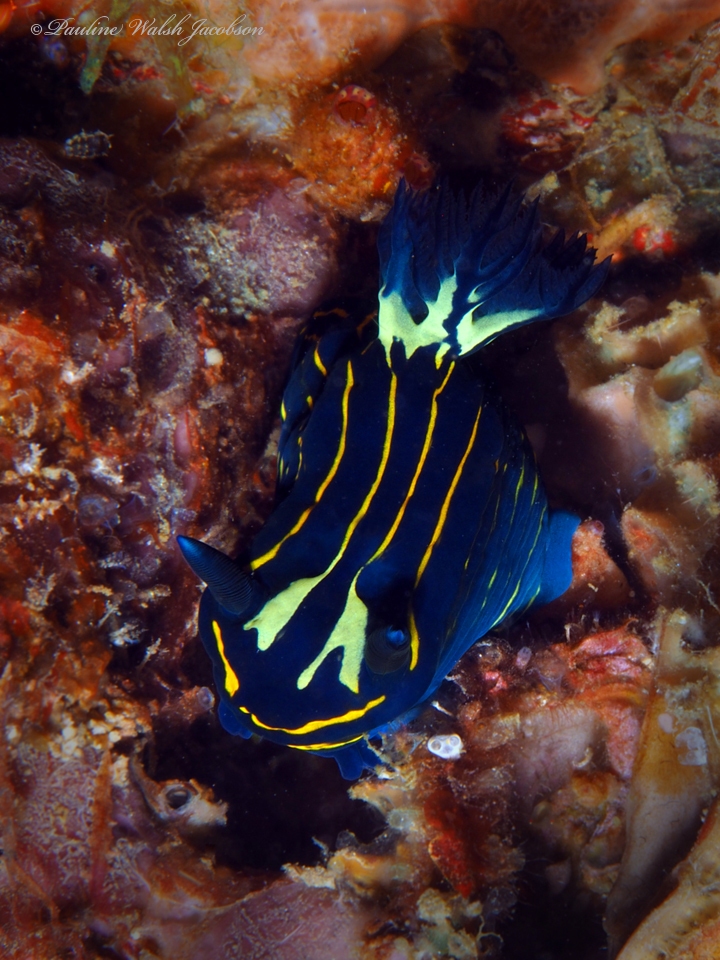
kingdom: Animalia
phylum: Mollusca
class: Gastropoda
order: Nudibranchia
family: Polyceridae
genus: Tyrannodoris
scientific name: Tyrannodoris luteolineata
